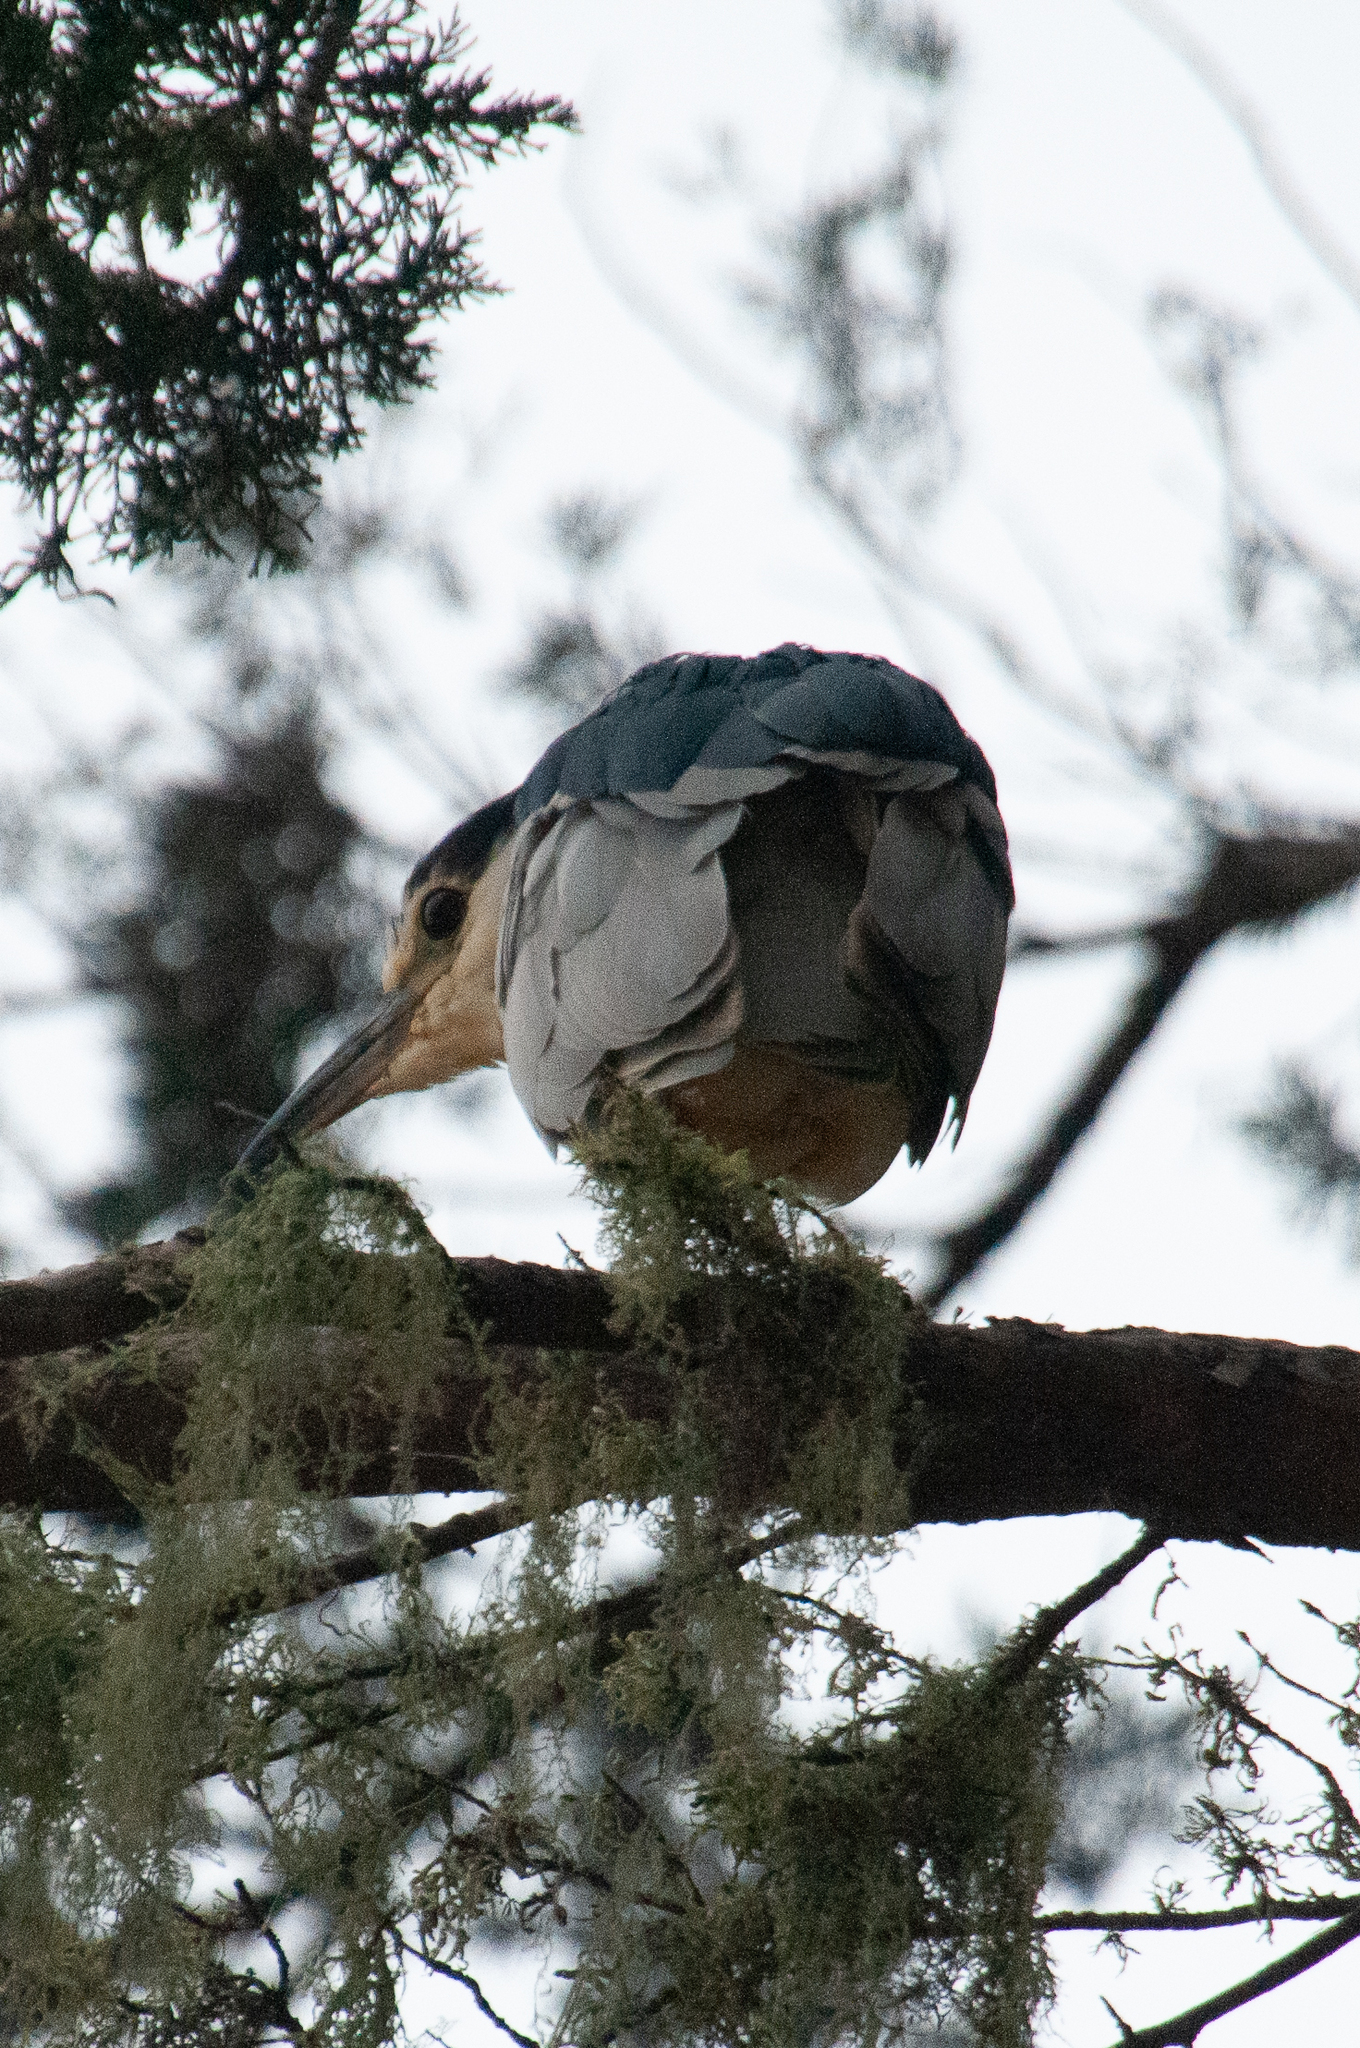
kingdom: Animalia
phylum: Chordata
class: Aves
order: Pelecaniformes
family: Ardeidae
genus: Nycticorax
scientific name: Nycticorax nycticorax
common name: Black-crowned night heron
